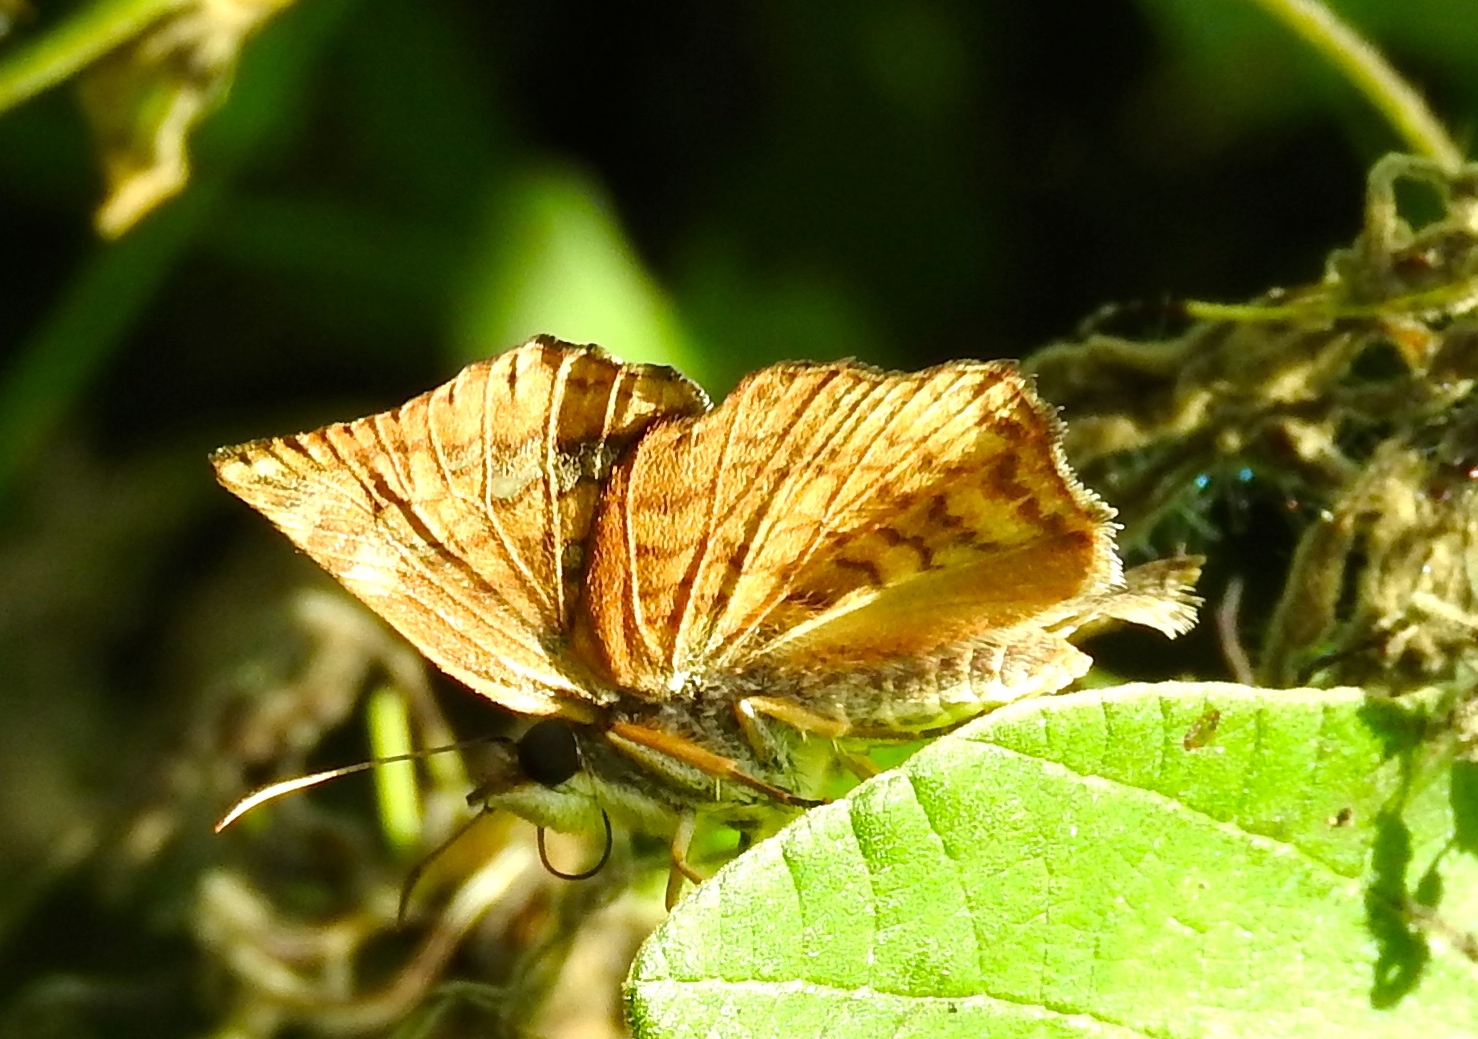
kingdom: Animalia
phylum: Arthropoda
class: Insecta
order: Lepidoptera
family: Hesperiidae
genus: Antigonus
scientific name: Antigonus erosus
